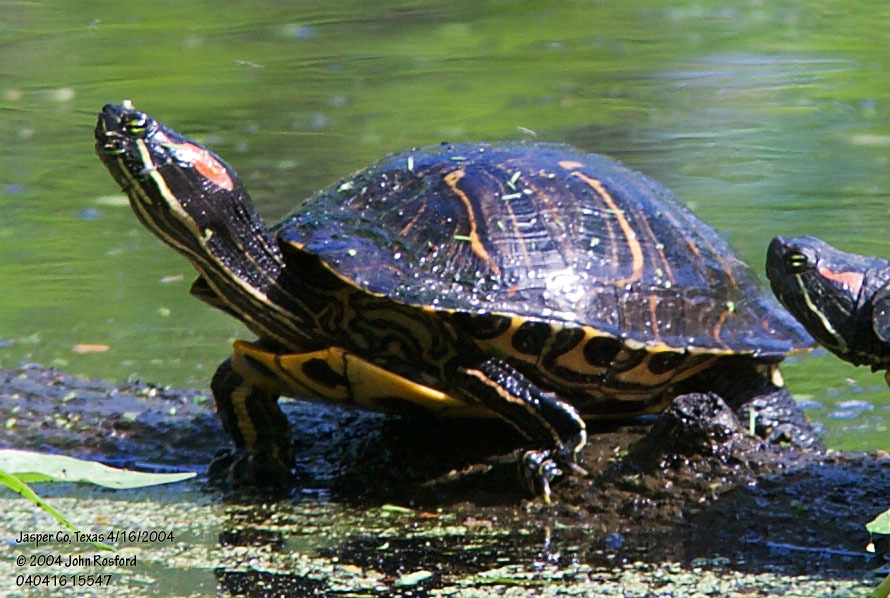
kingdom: Animalia
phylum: Chordata
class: Testudines
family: Emydidae
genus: Trachemys
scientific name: Trachemys scripta
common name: Slider
